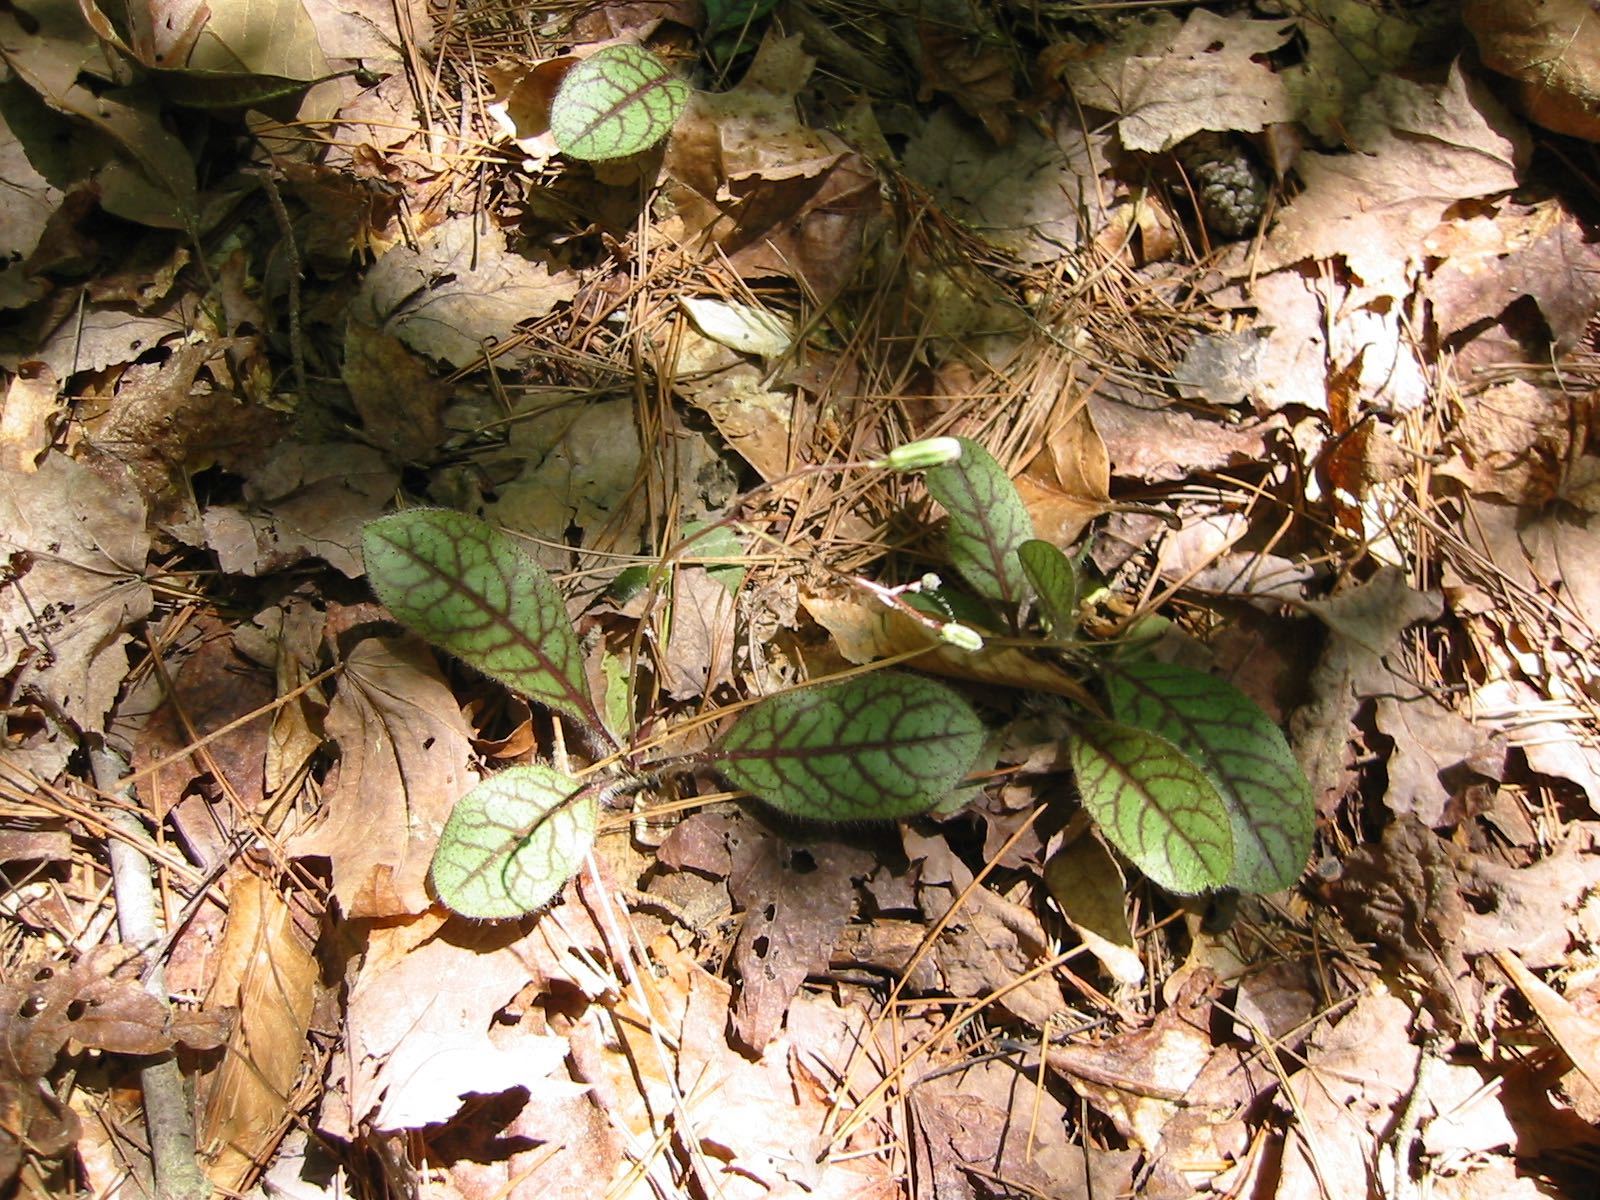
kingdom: Plantae
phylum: Tracheophyta
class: Magnoliopsida
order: Asterales
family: Asteraceae
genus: Hieracium
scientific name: Hieracium venosum
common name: Rattlesnake hawkweed
